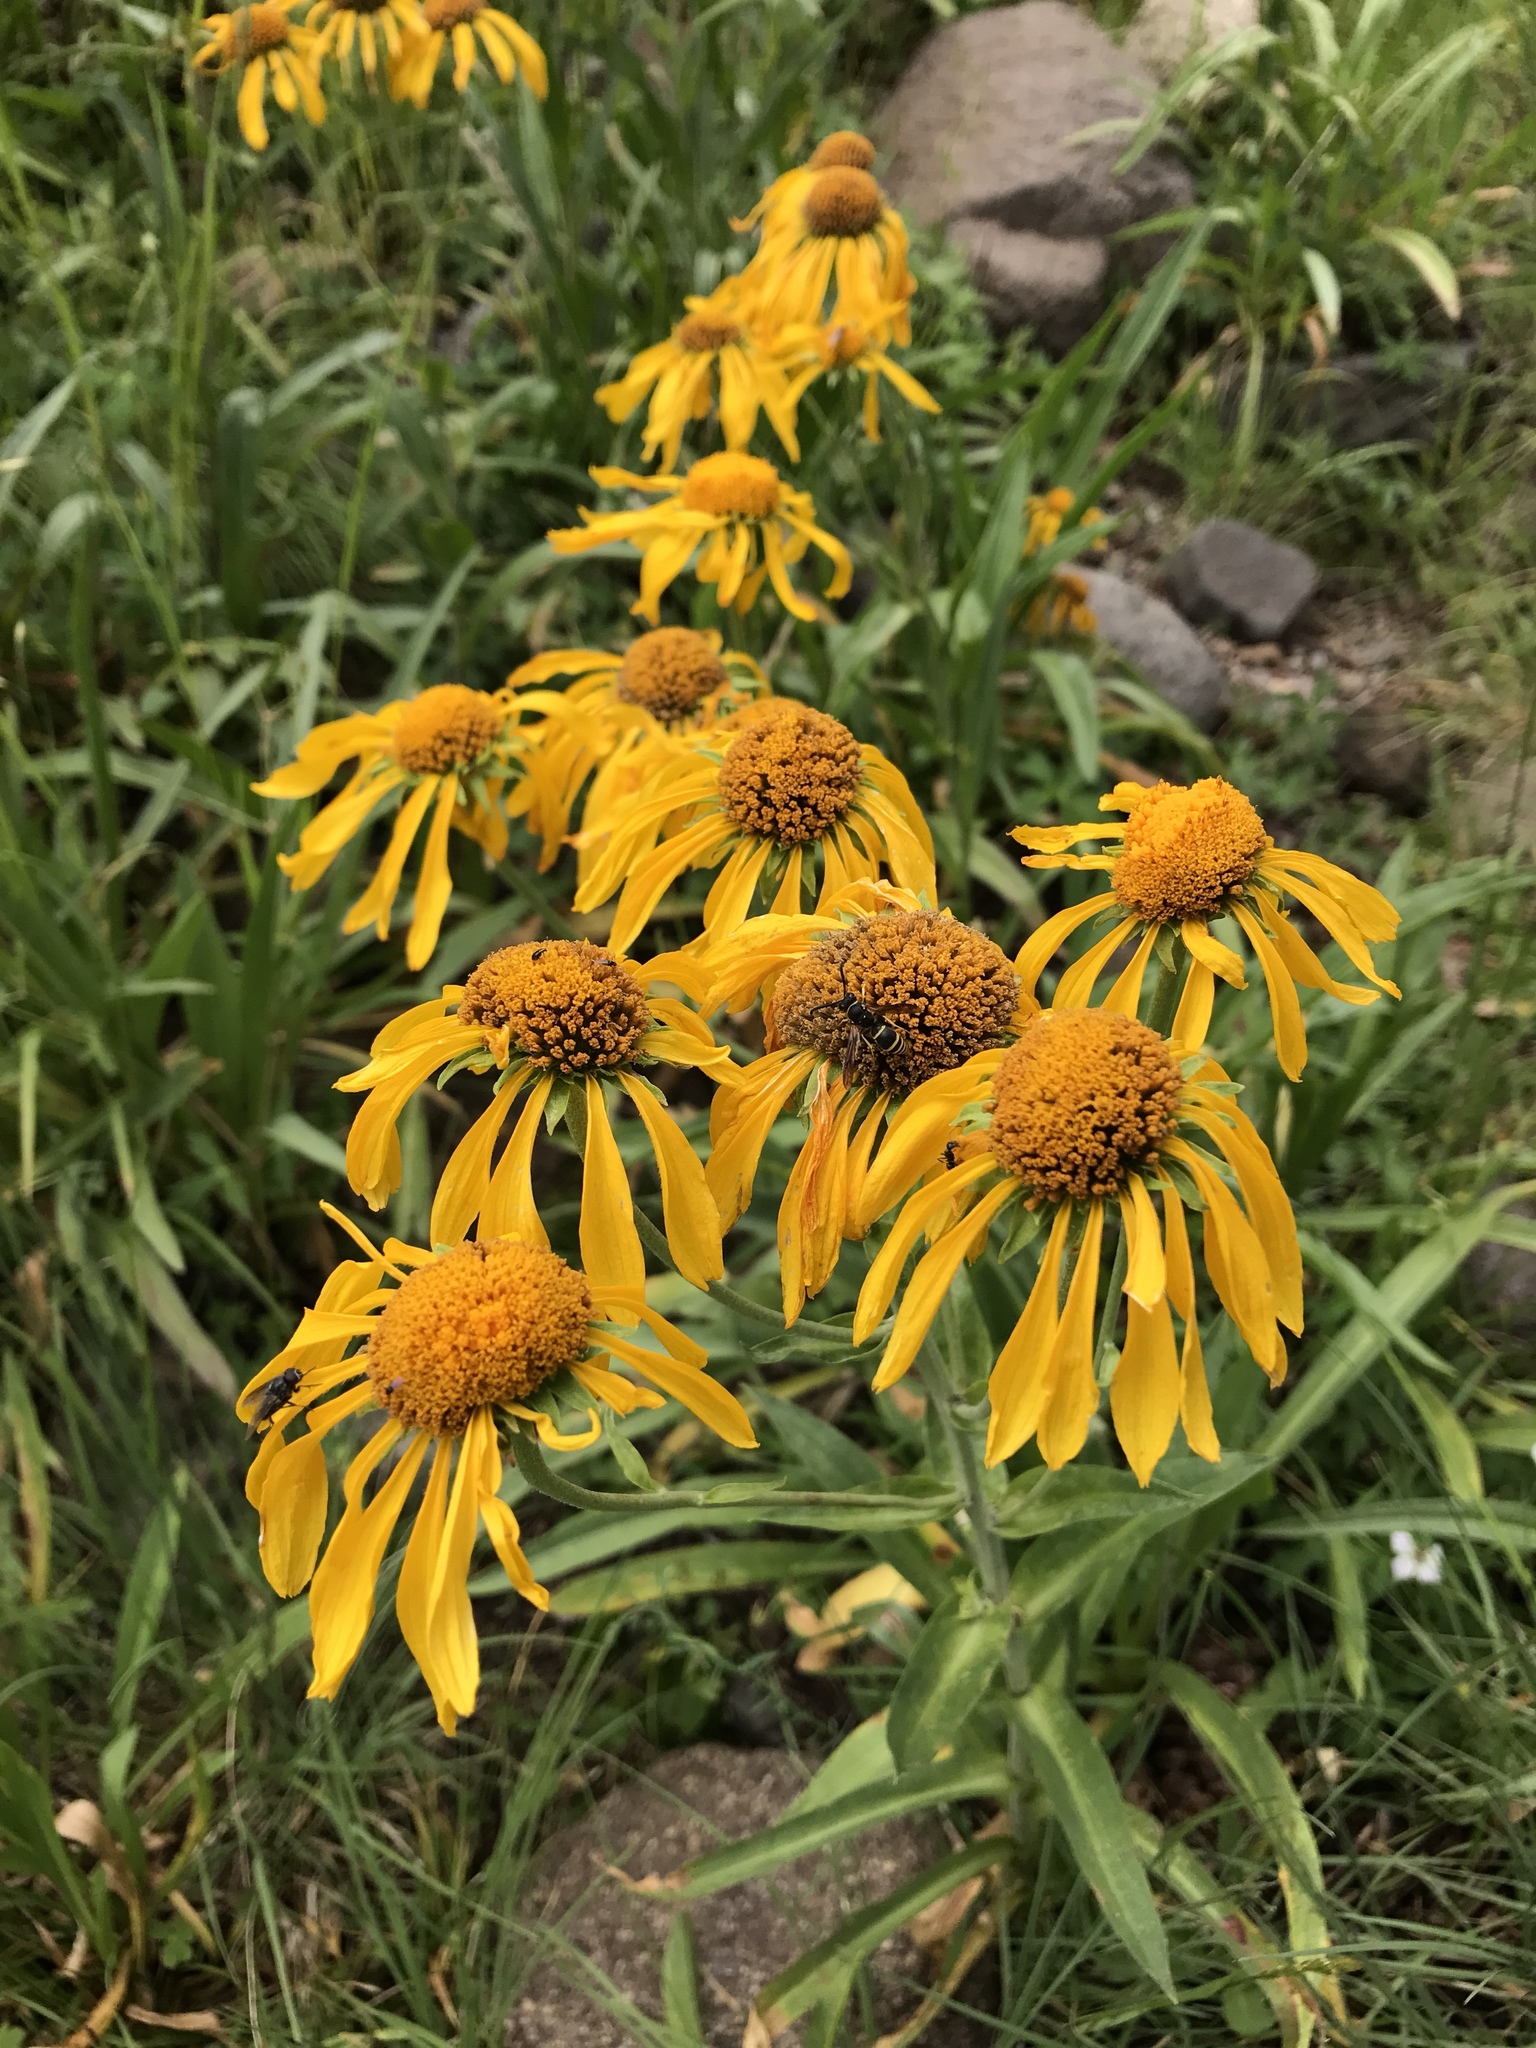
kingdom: Plantae
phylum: Tracheophyta
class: Magnoliopsida
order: Asterales
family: Asteraceae
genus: Hymenoxys
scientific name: Hymenoxys hoopesii
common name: Orange-sneezeweed
